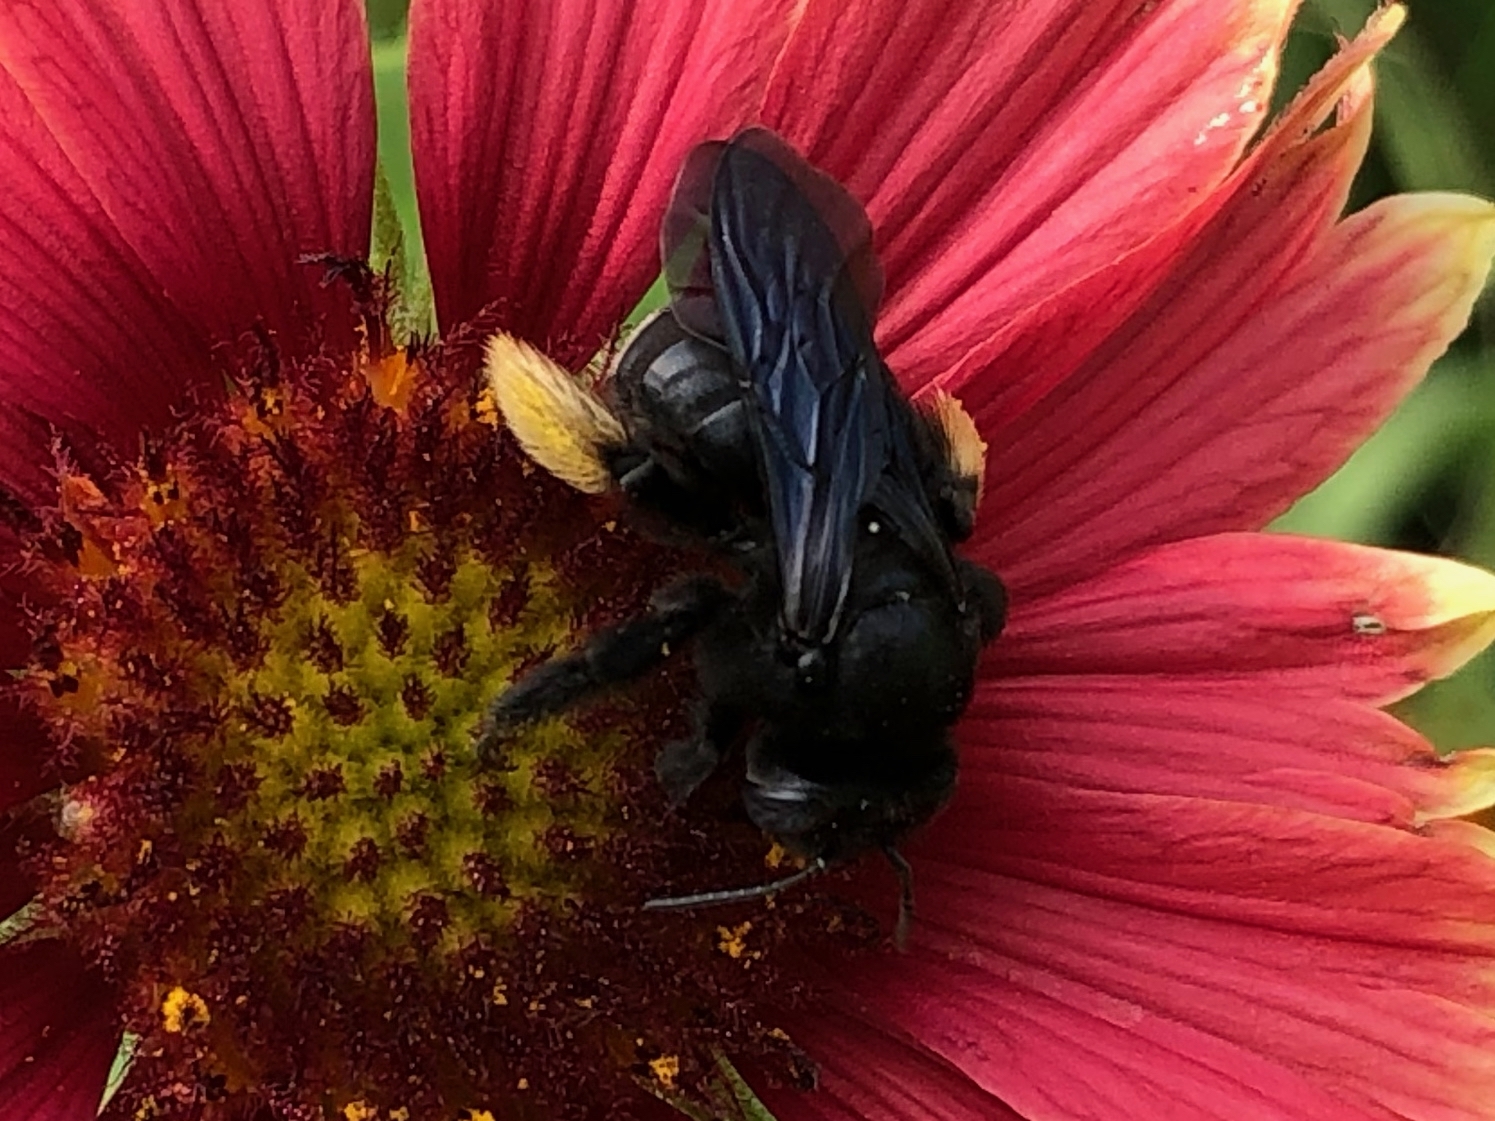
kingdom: Animalia
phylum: Arthropoda
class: Insecta
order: Hymenoptera
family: Apidae
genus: Melissodes
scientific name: Melissodes bimaculatus
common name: Two-spotted long-horned bee
